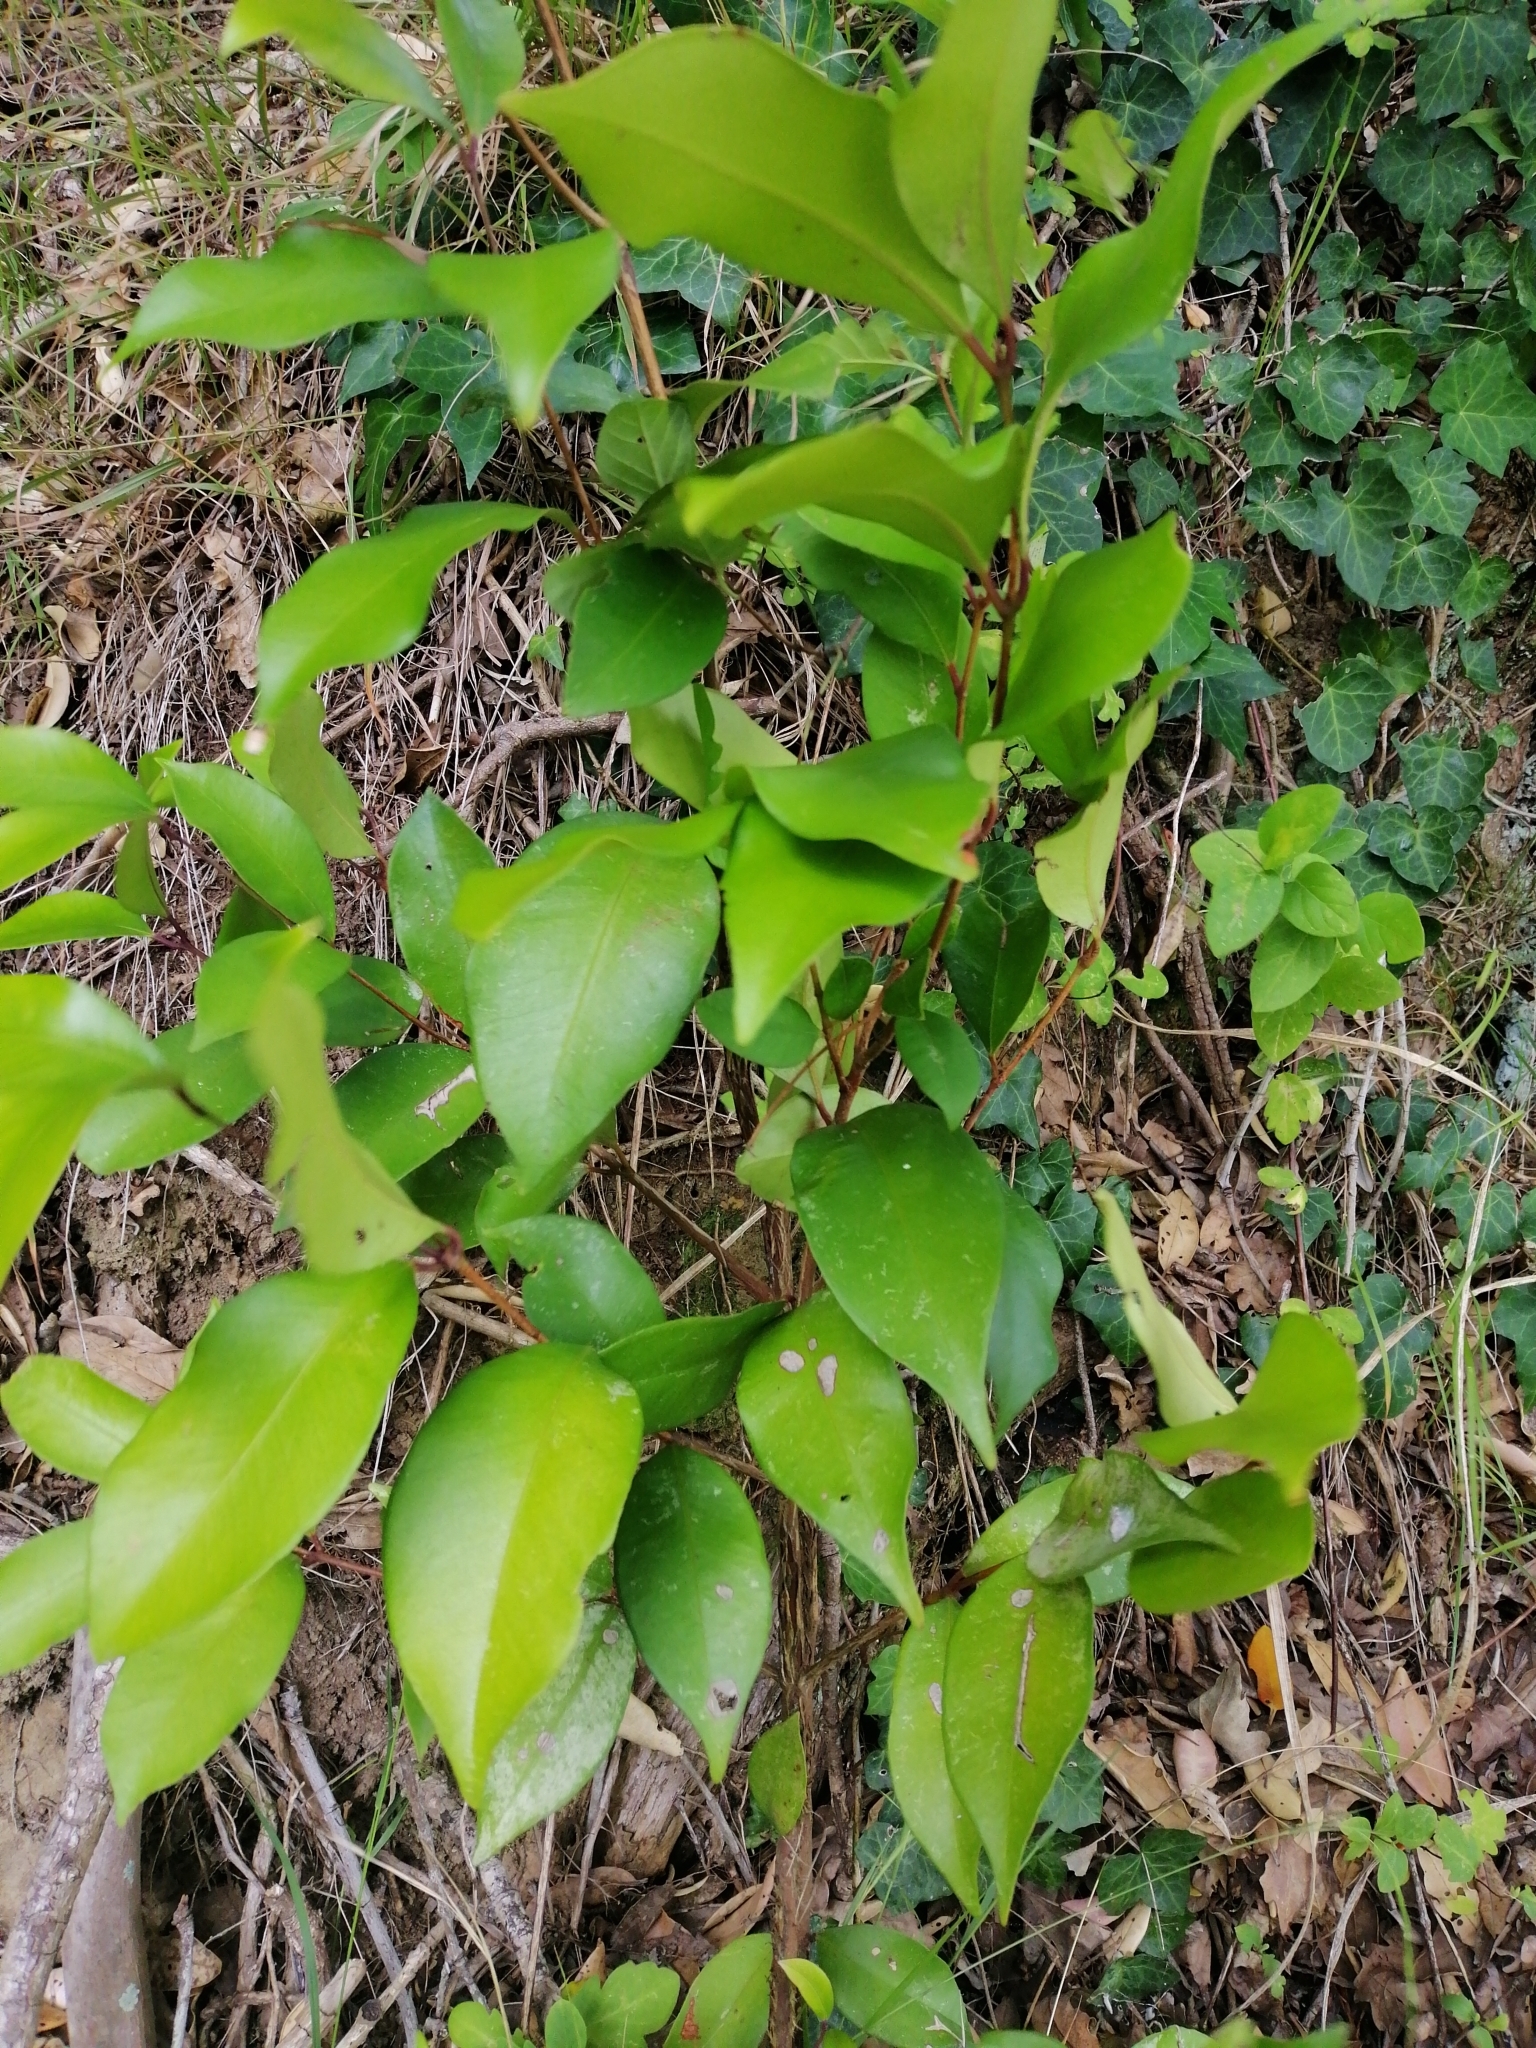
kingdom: Plantae
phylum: Tracheophyta
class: Magnoliopsida
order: Myrtales
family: Myrtaceae
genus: Syzygium
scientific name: Syzygium smithii
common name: Lilly-pilly
